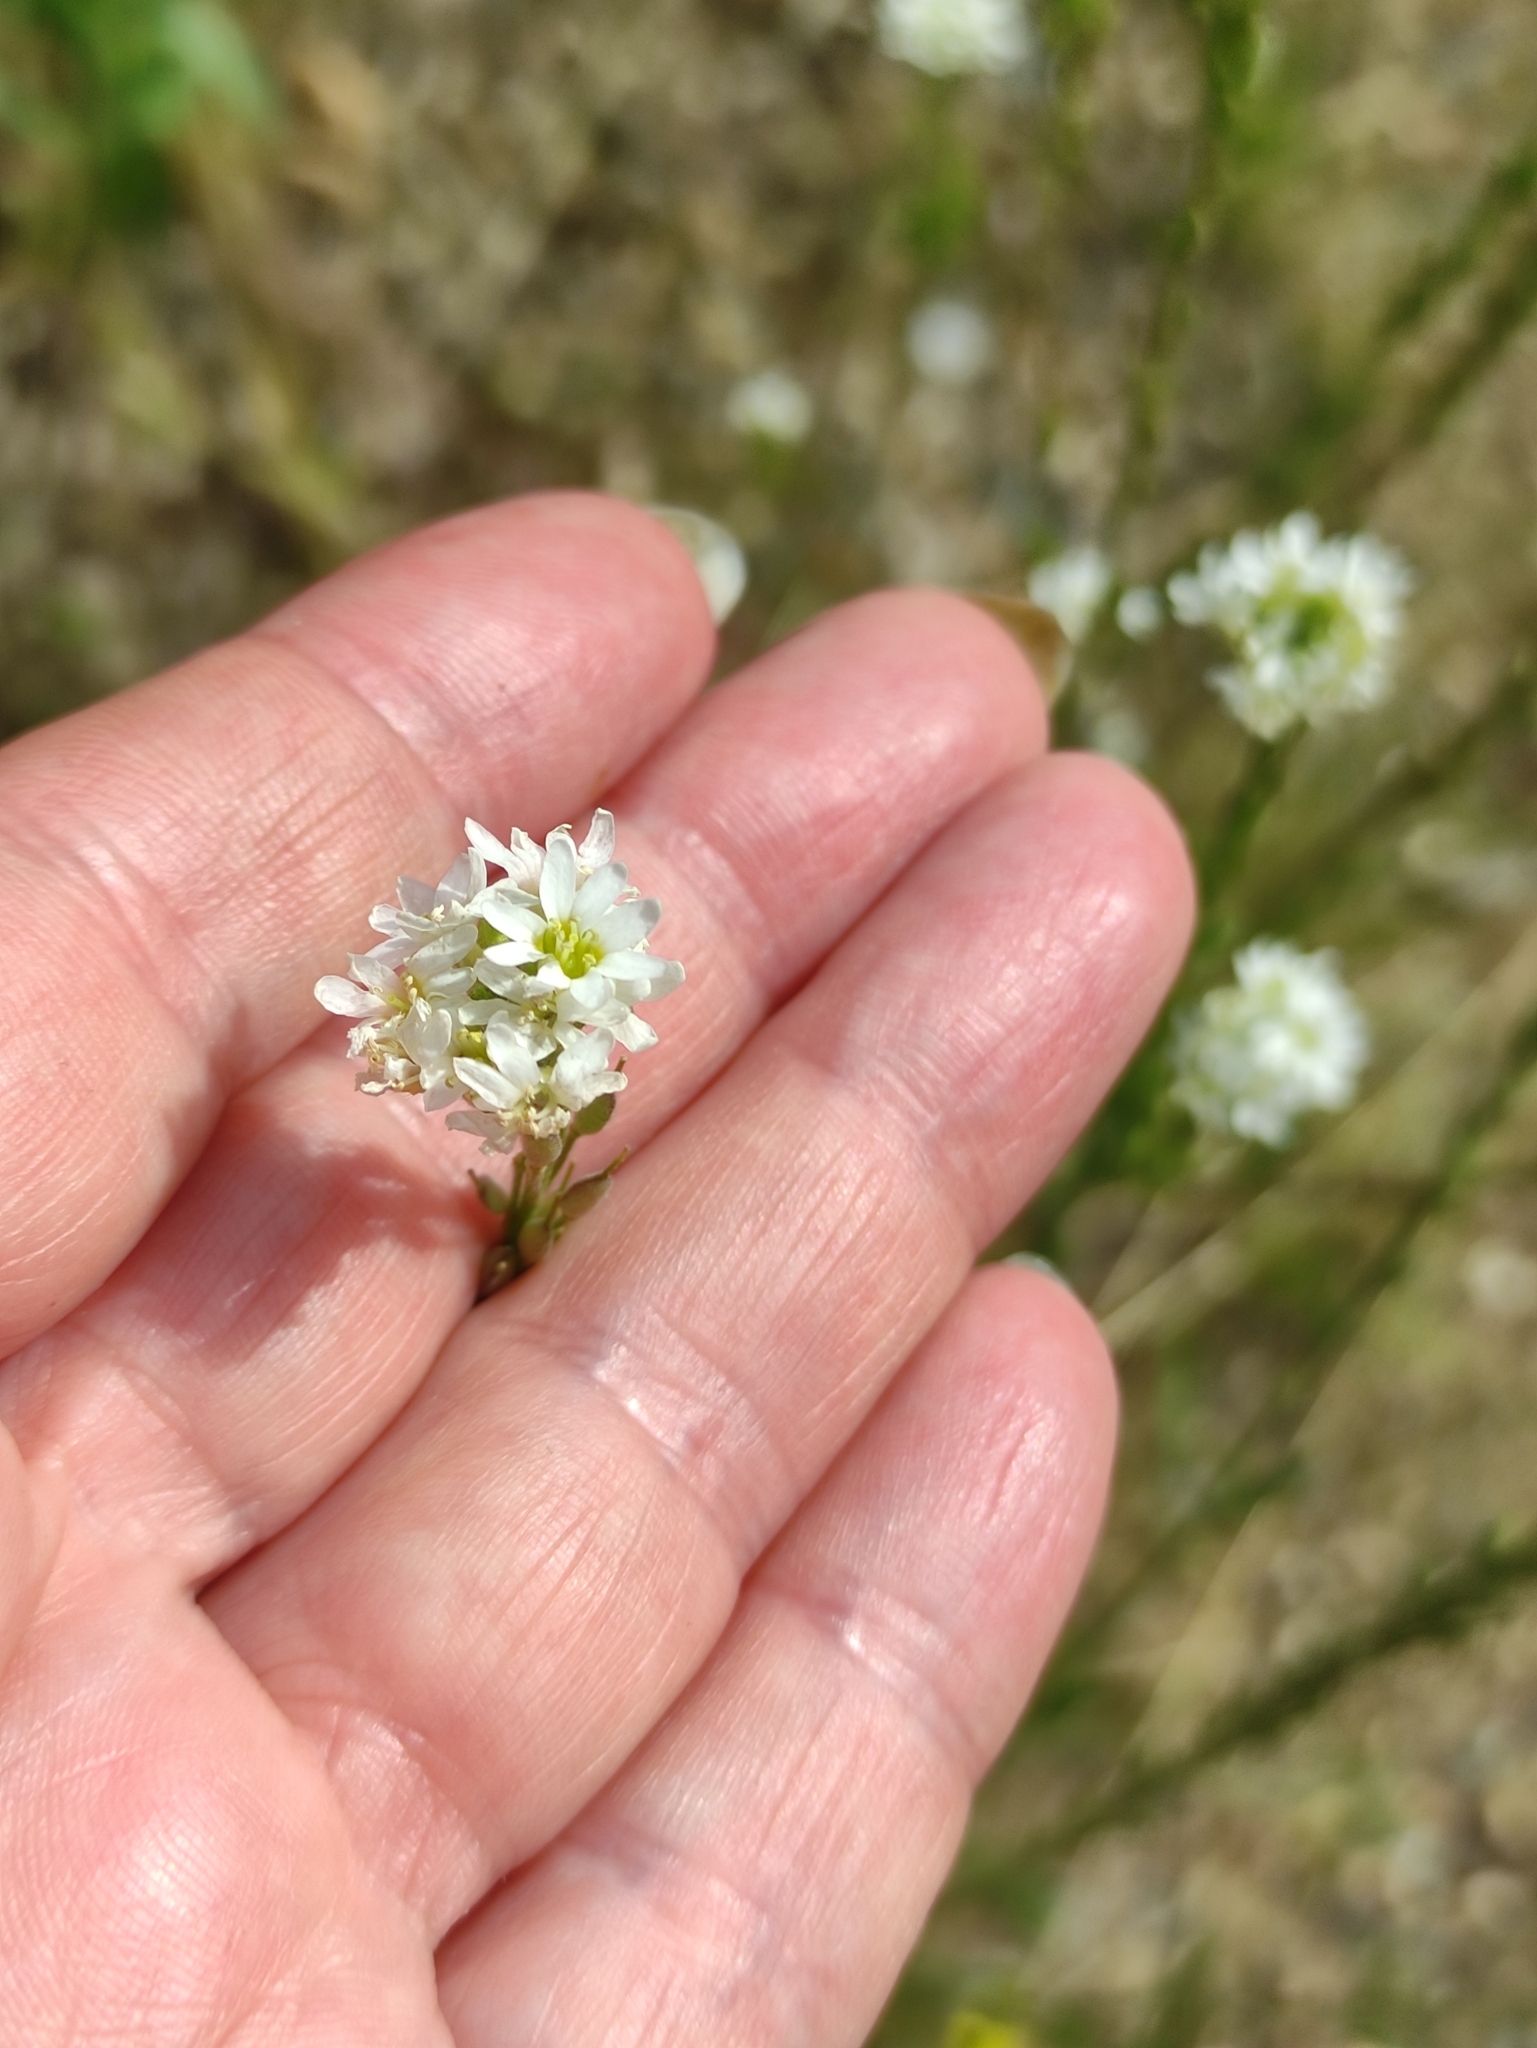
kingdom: Plantae
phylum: Tracheophyta
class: Magnoliopsida
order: Brassicales
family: Brassicaceae
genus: Berteroa
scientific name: Berteroa incana
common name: Hoary alison
